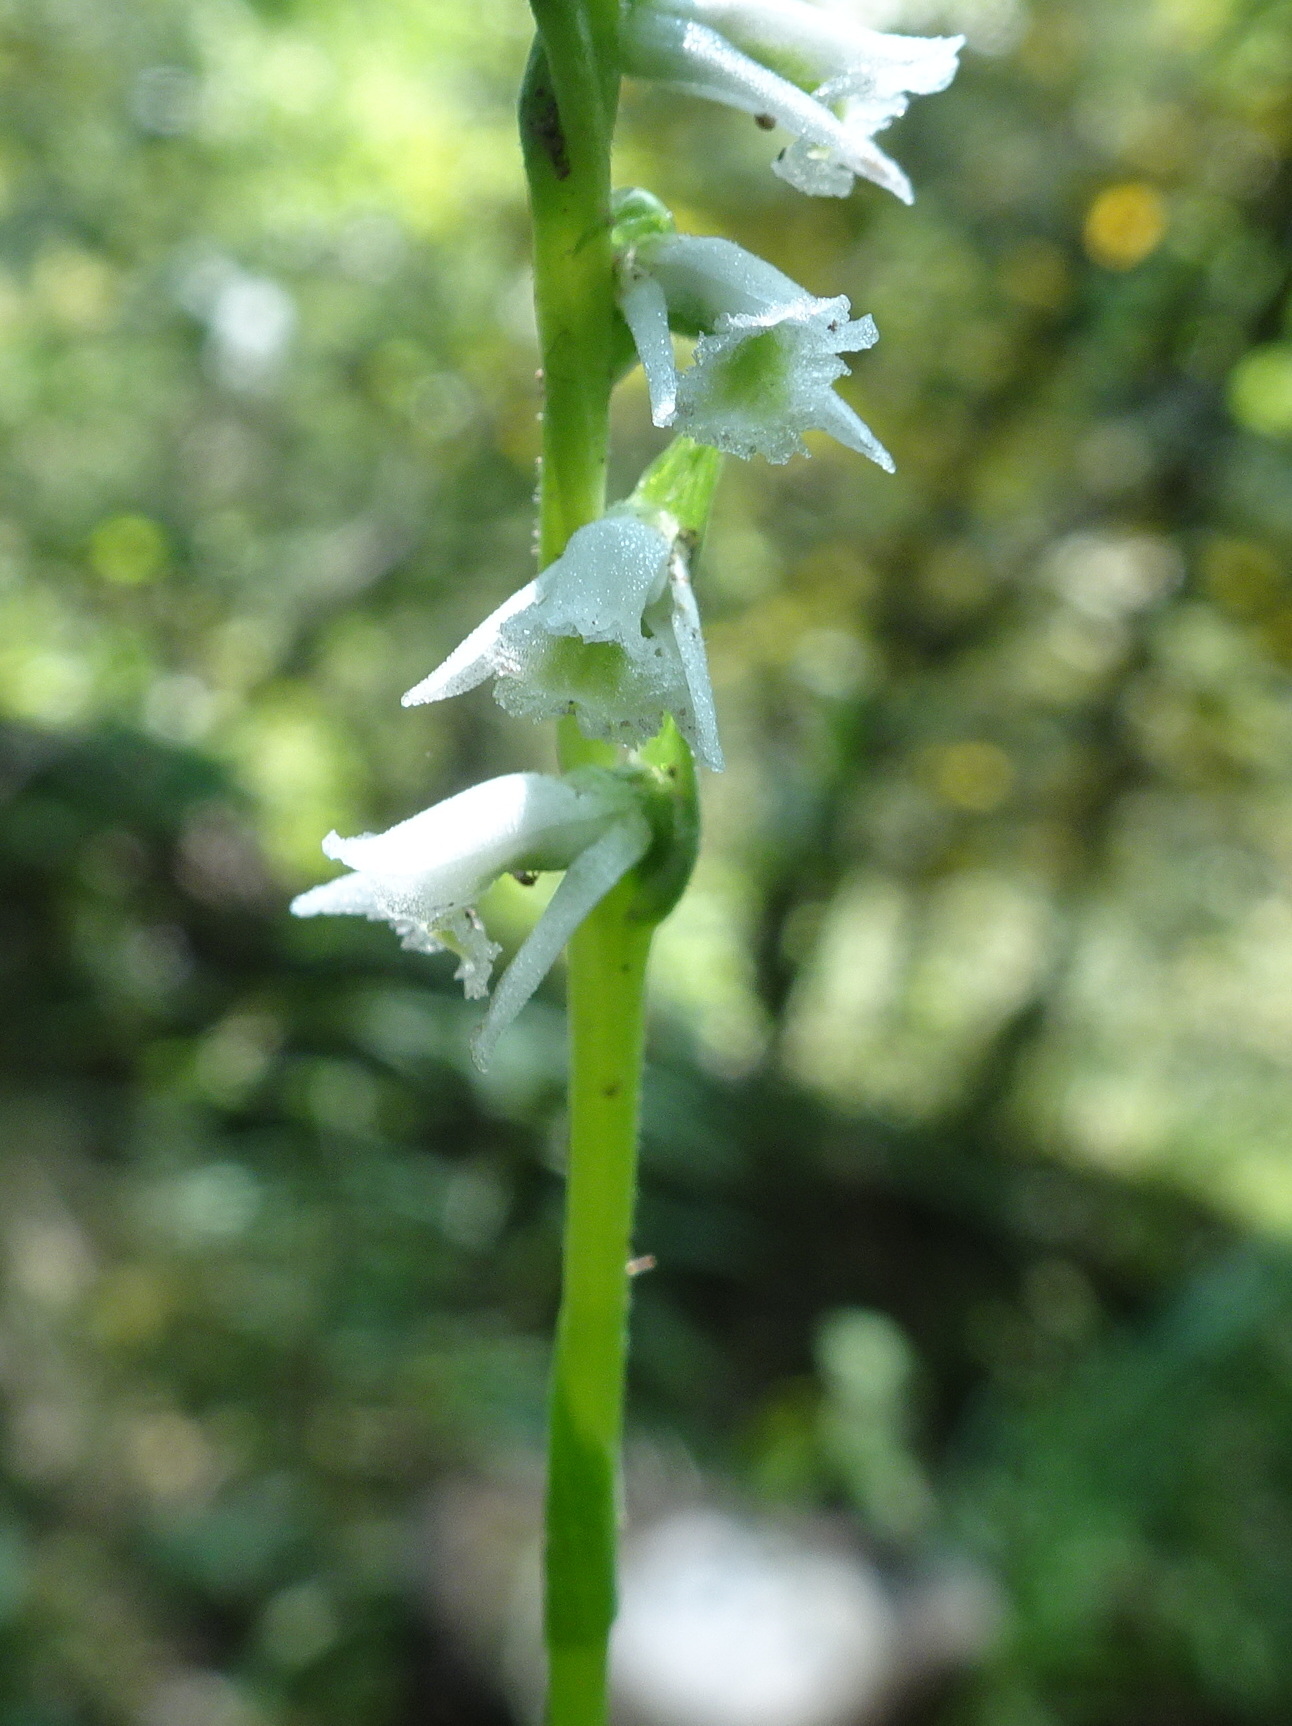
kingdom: Plantae
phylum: Tracheophyta
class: Liliopsida
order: Asparagales
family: Orchidaceae
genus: Spiranthes
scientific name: Spiranthes lacera
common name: Northern slender ladies'-tresses
